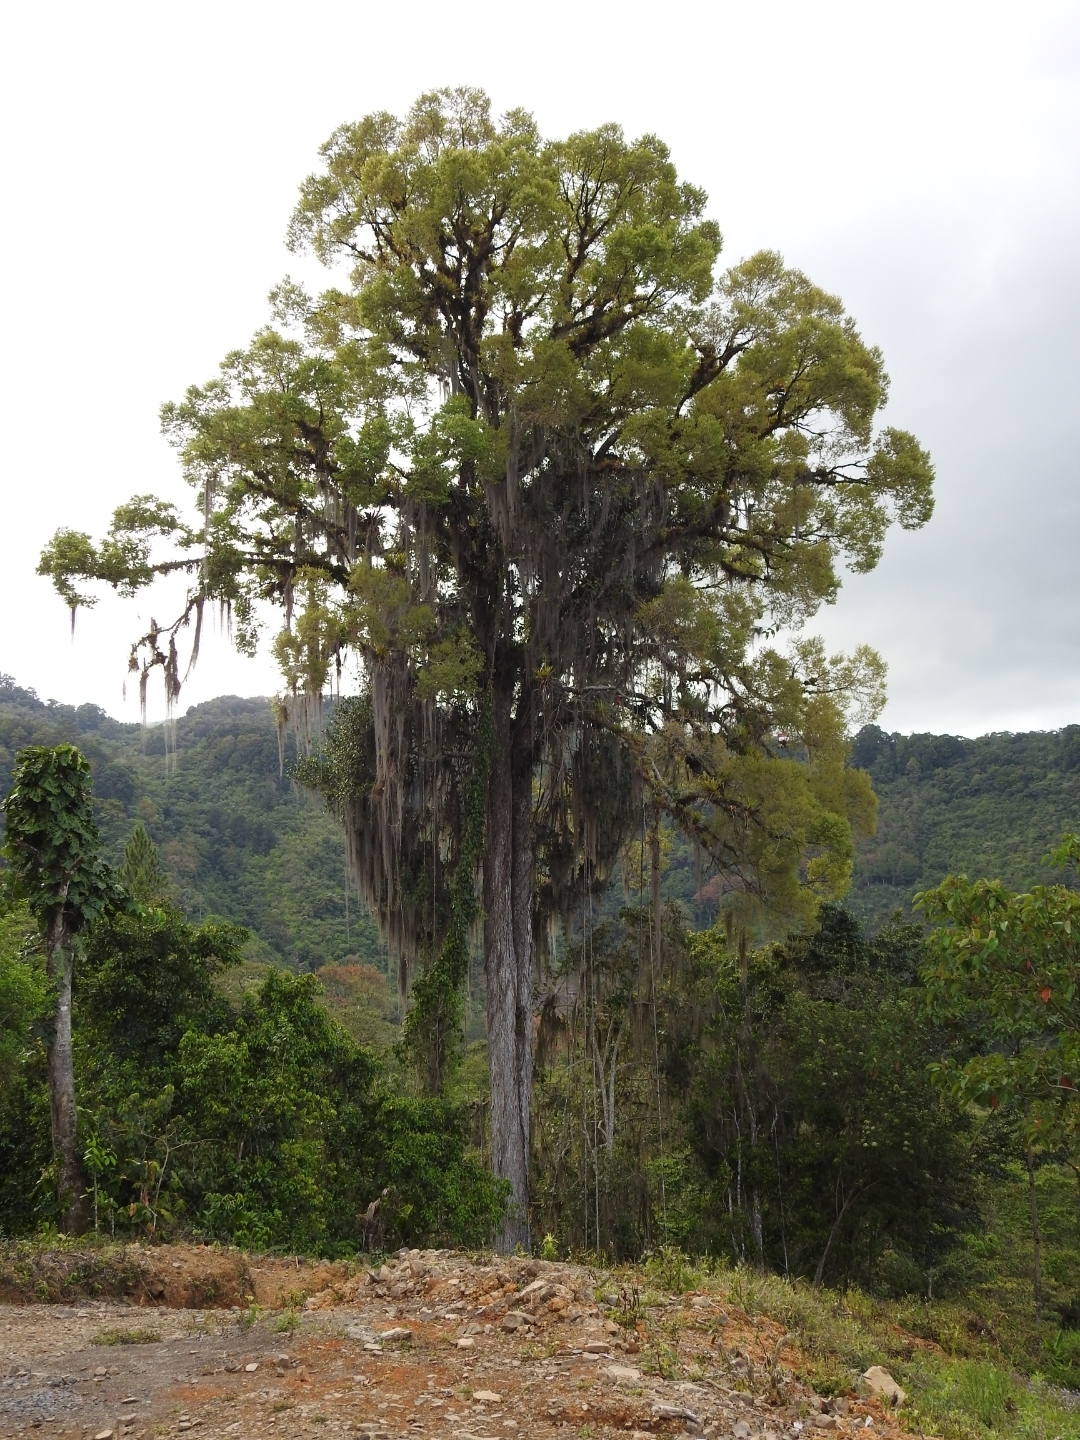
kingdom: Plantae
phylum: Tracheophyta
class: Magnoliopsida
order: Rosales
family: Ulmaceae
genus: Ulmus
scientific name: Ulmus mexicana
